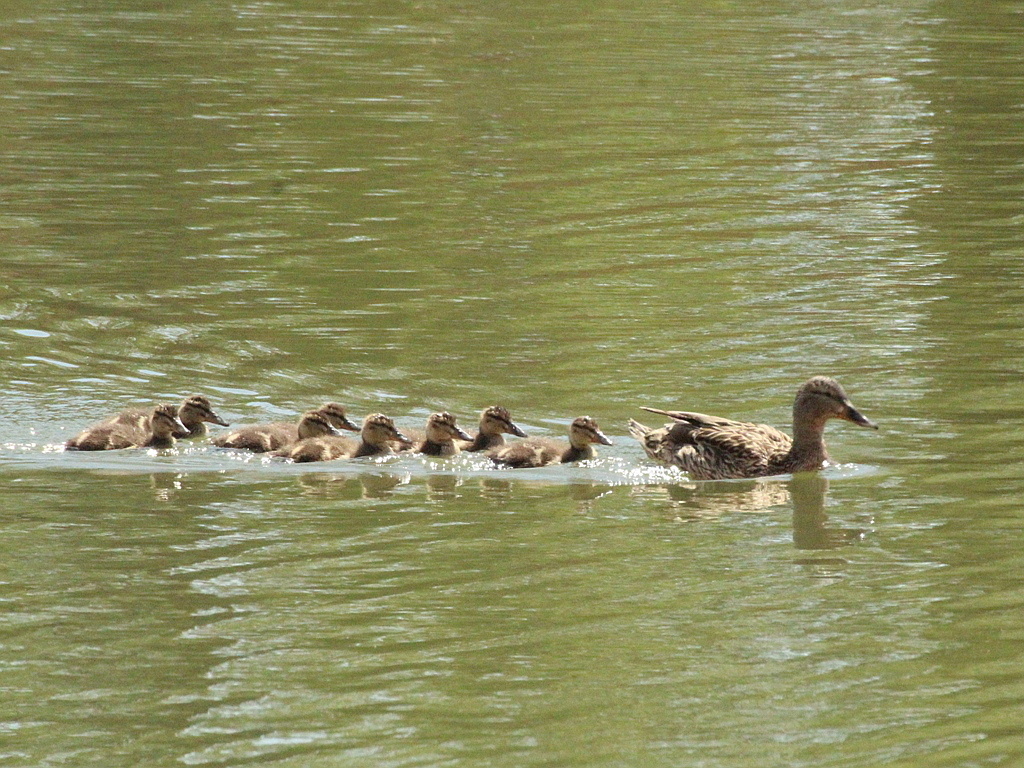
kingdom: Animalia
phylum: Chordata
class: Aves
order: Anseriformes
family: Anatidae
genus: Anas
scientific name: Anas platyrhynchos
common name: Mallard
